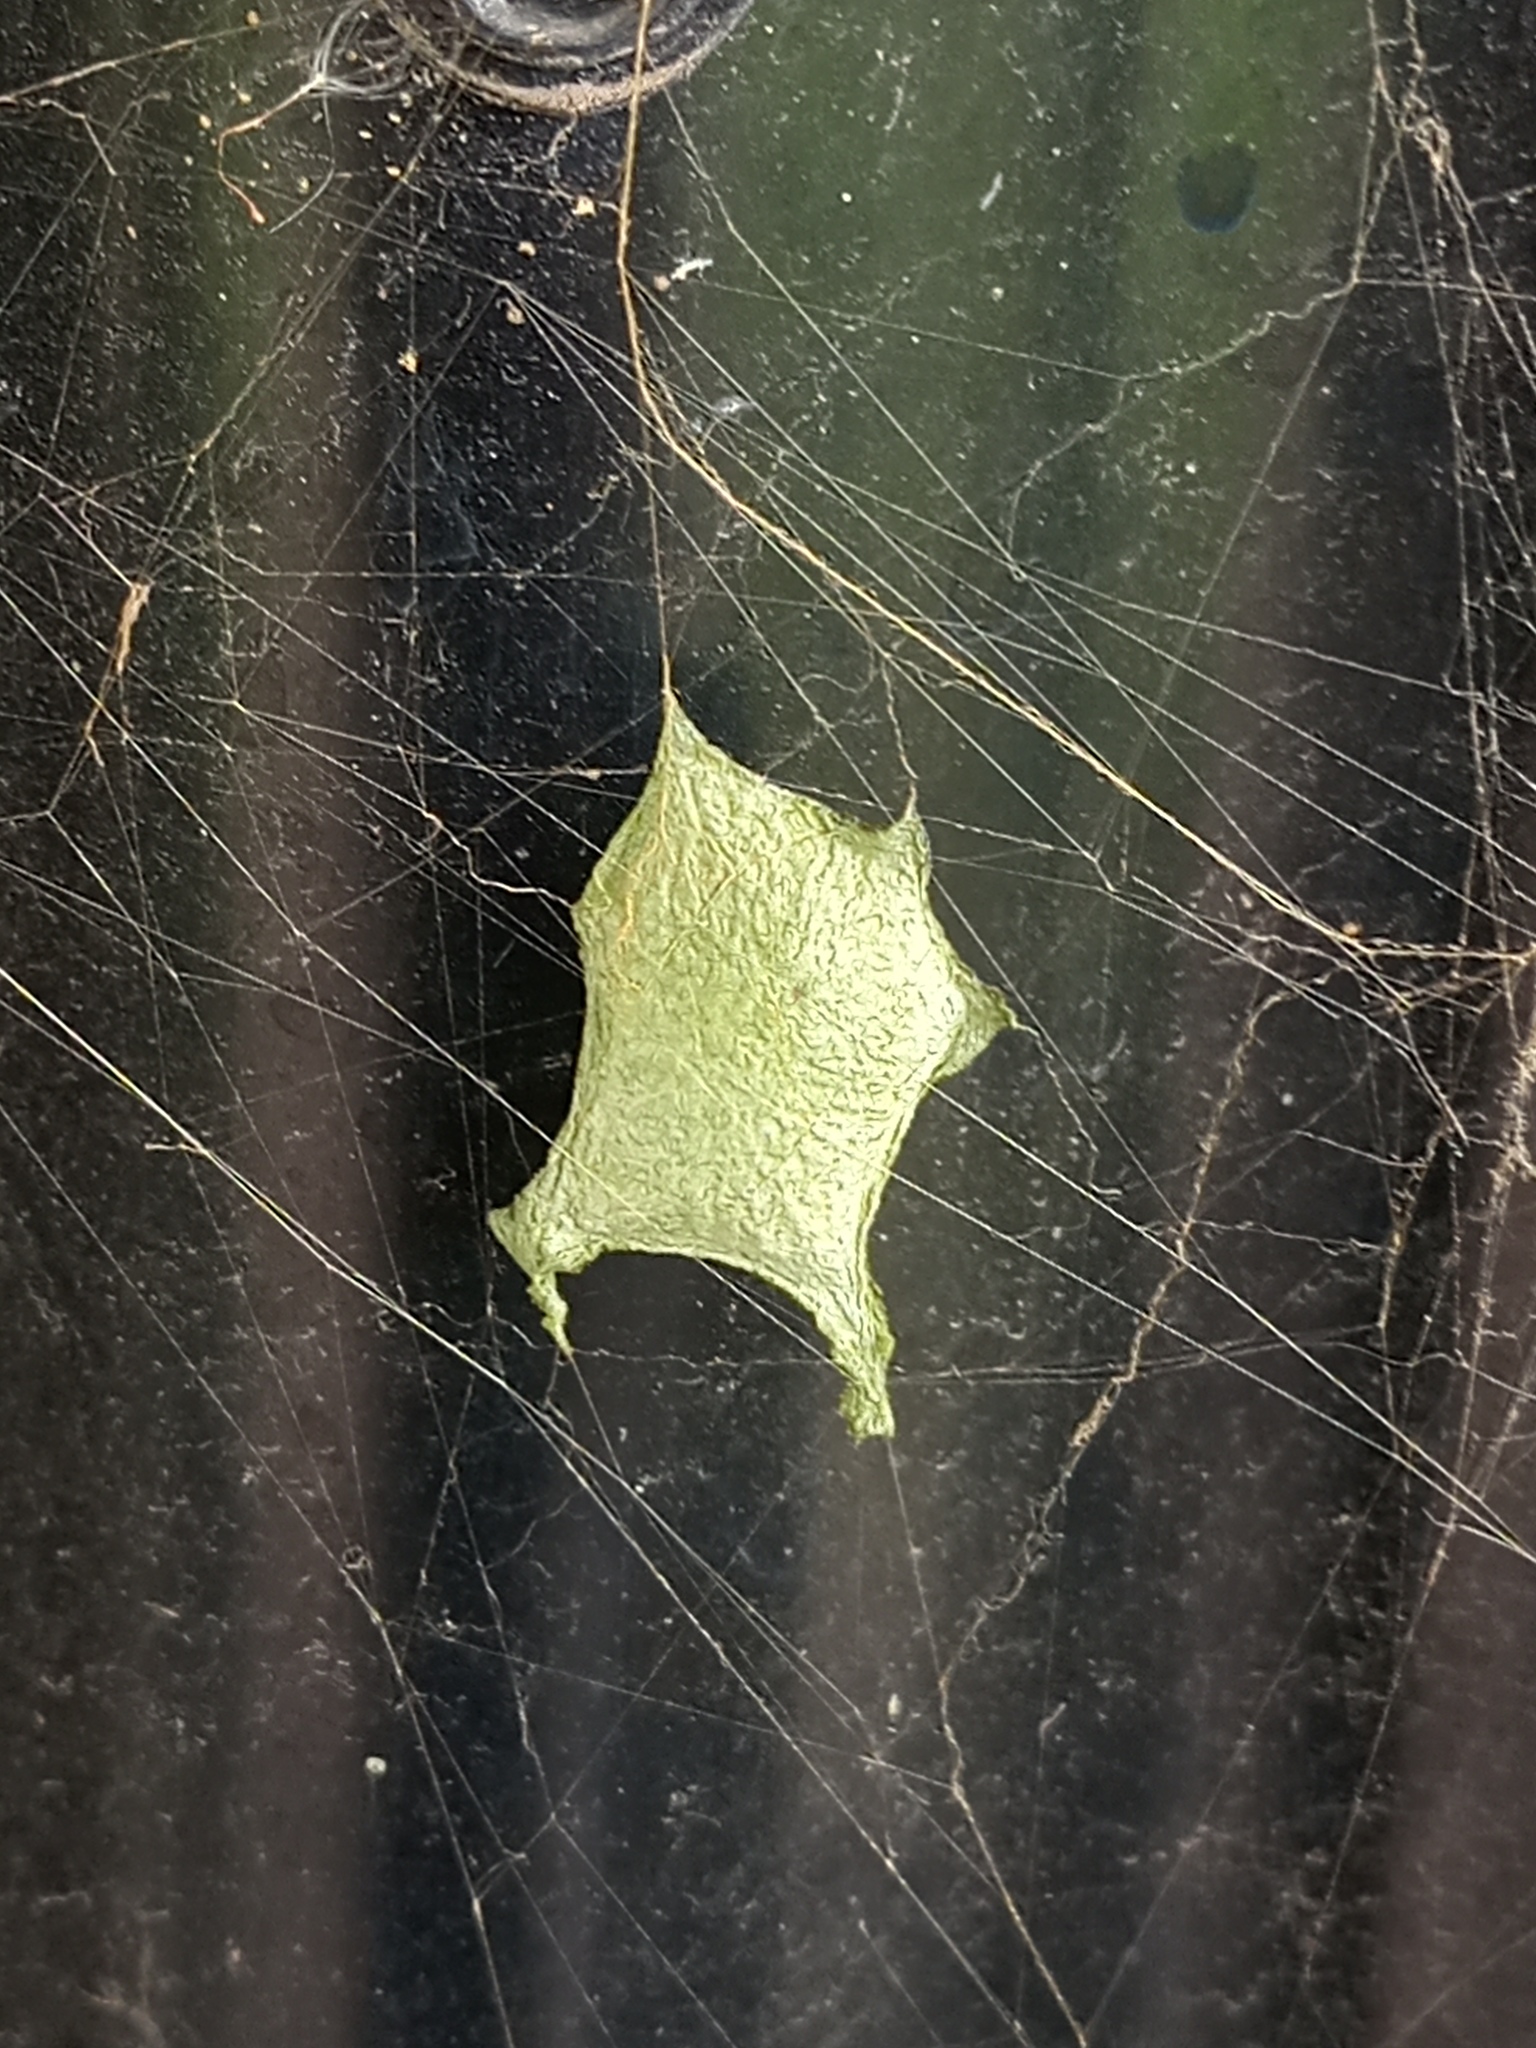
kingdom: Animalia
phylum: Arthropoda
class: Arachnida
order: Araneae
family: Araneidae
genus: Argiope
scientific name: Argiope argentata
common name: Orb weavers
